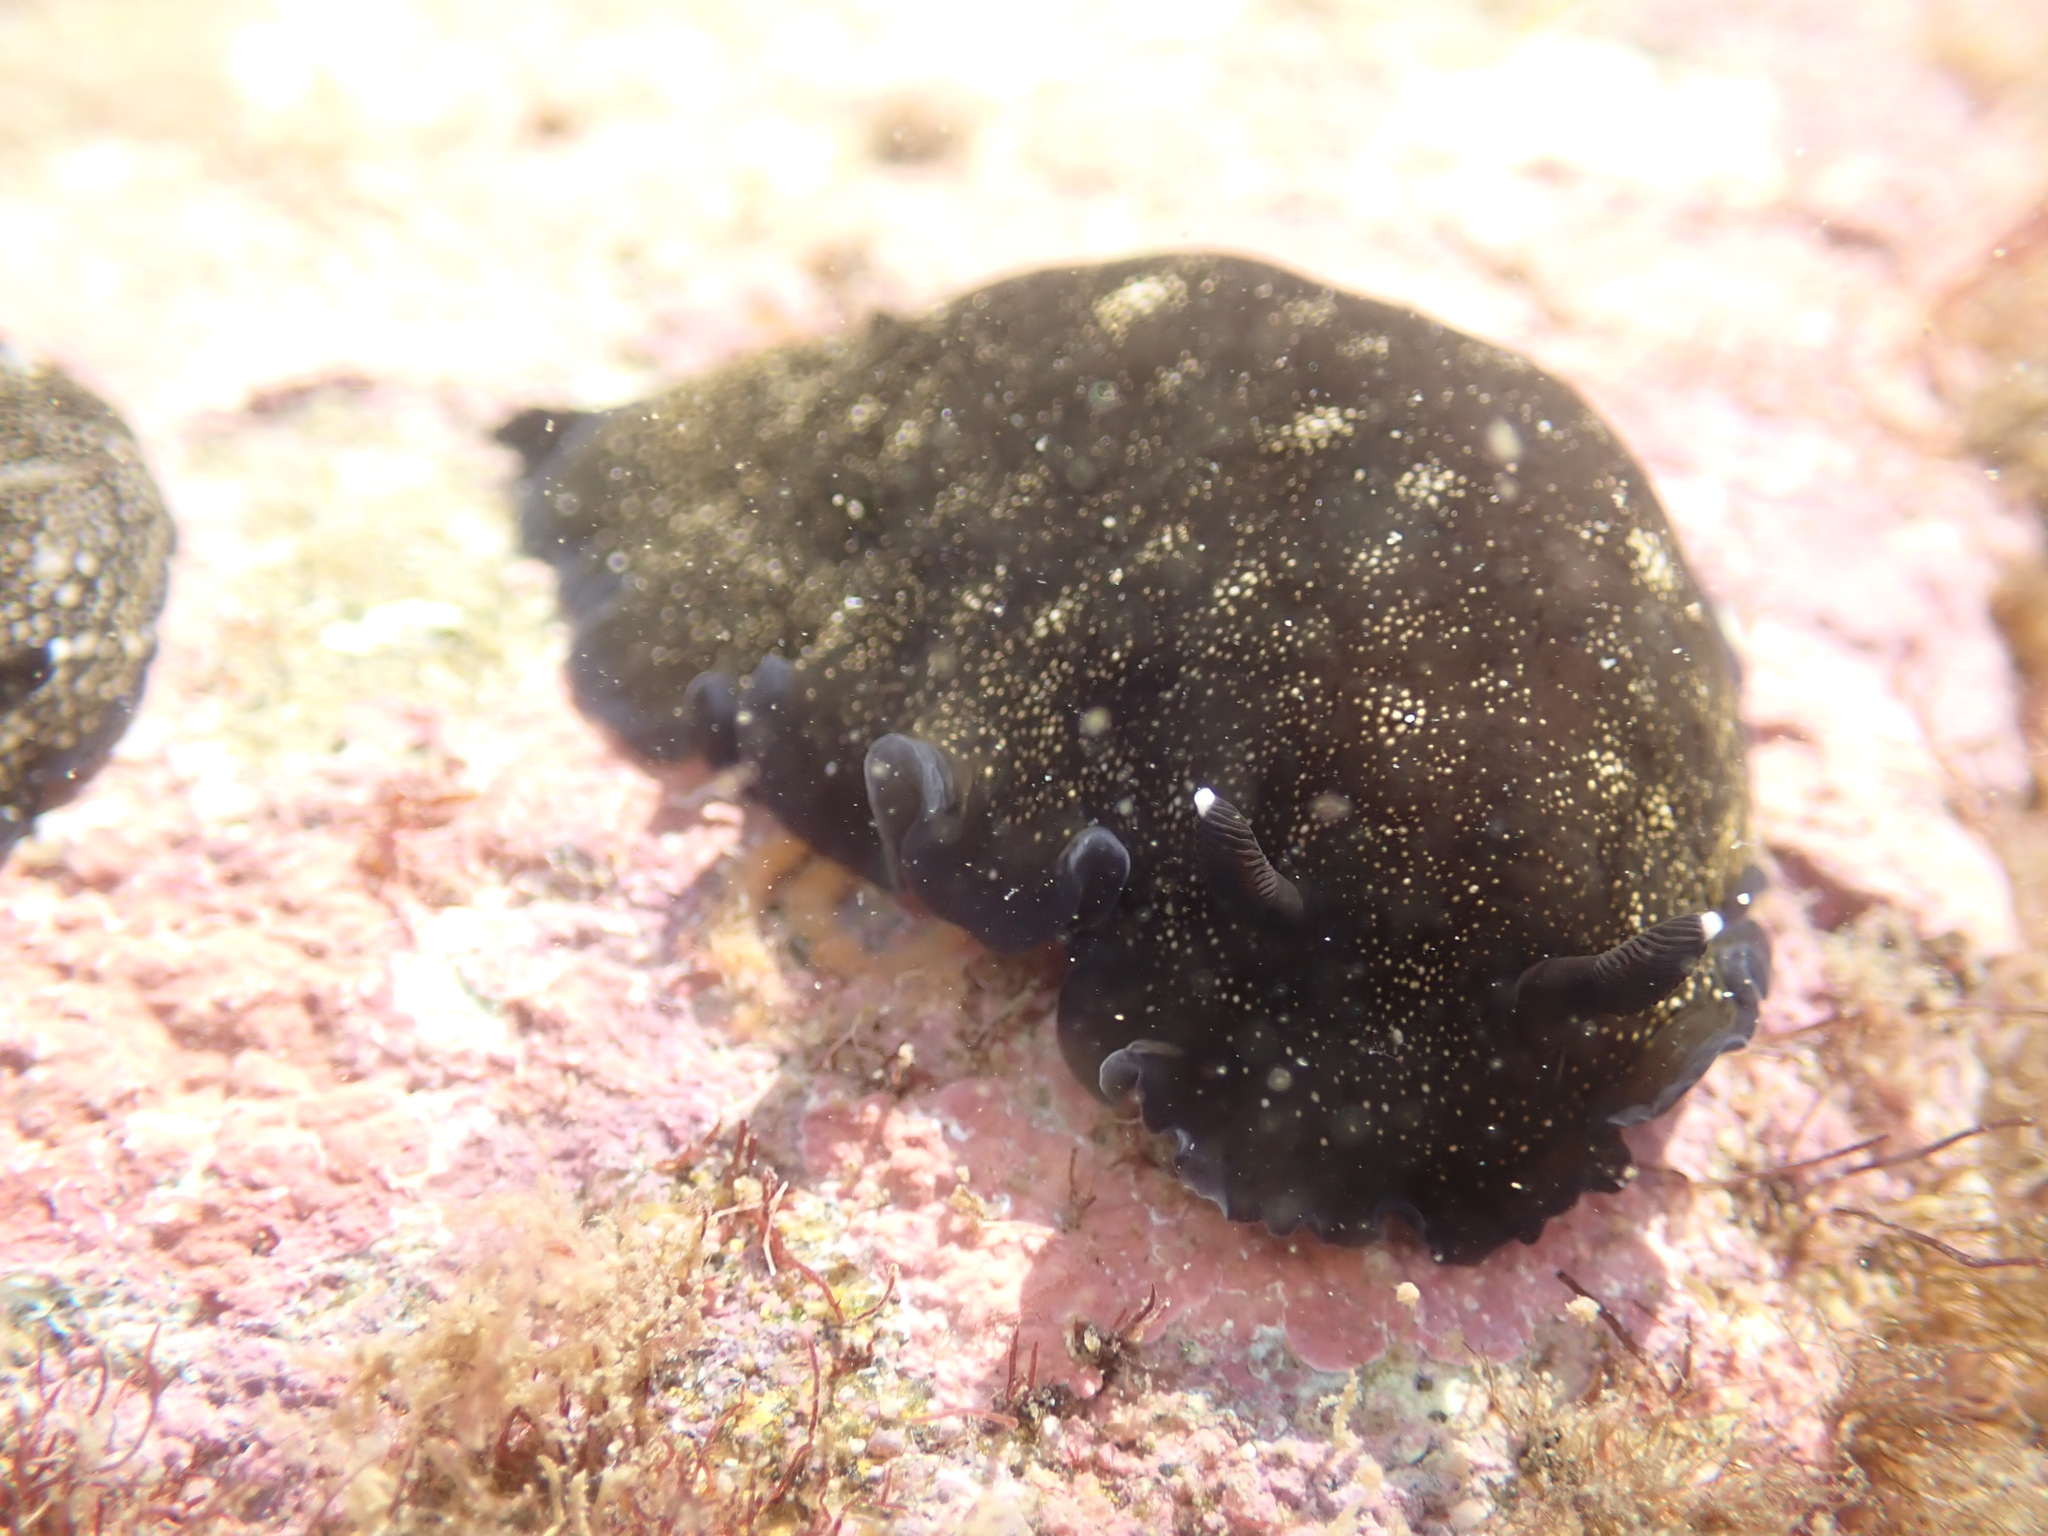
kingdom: Animalia
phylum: Mollusca
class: Gastropoda
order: Nudibranchia
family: Dendrodorididae
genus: Dendrodoris
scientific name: Dendrodoris nigra
